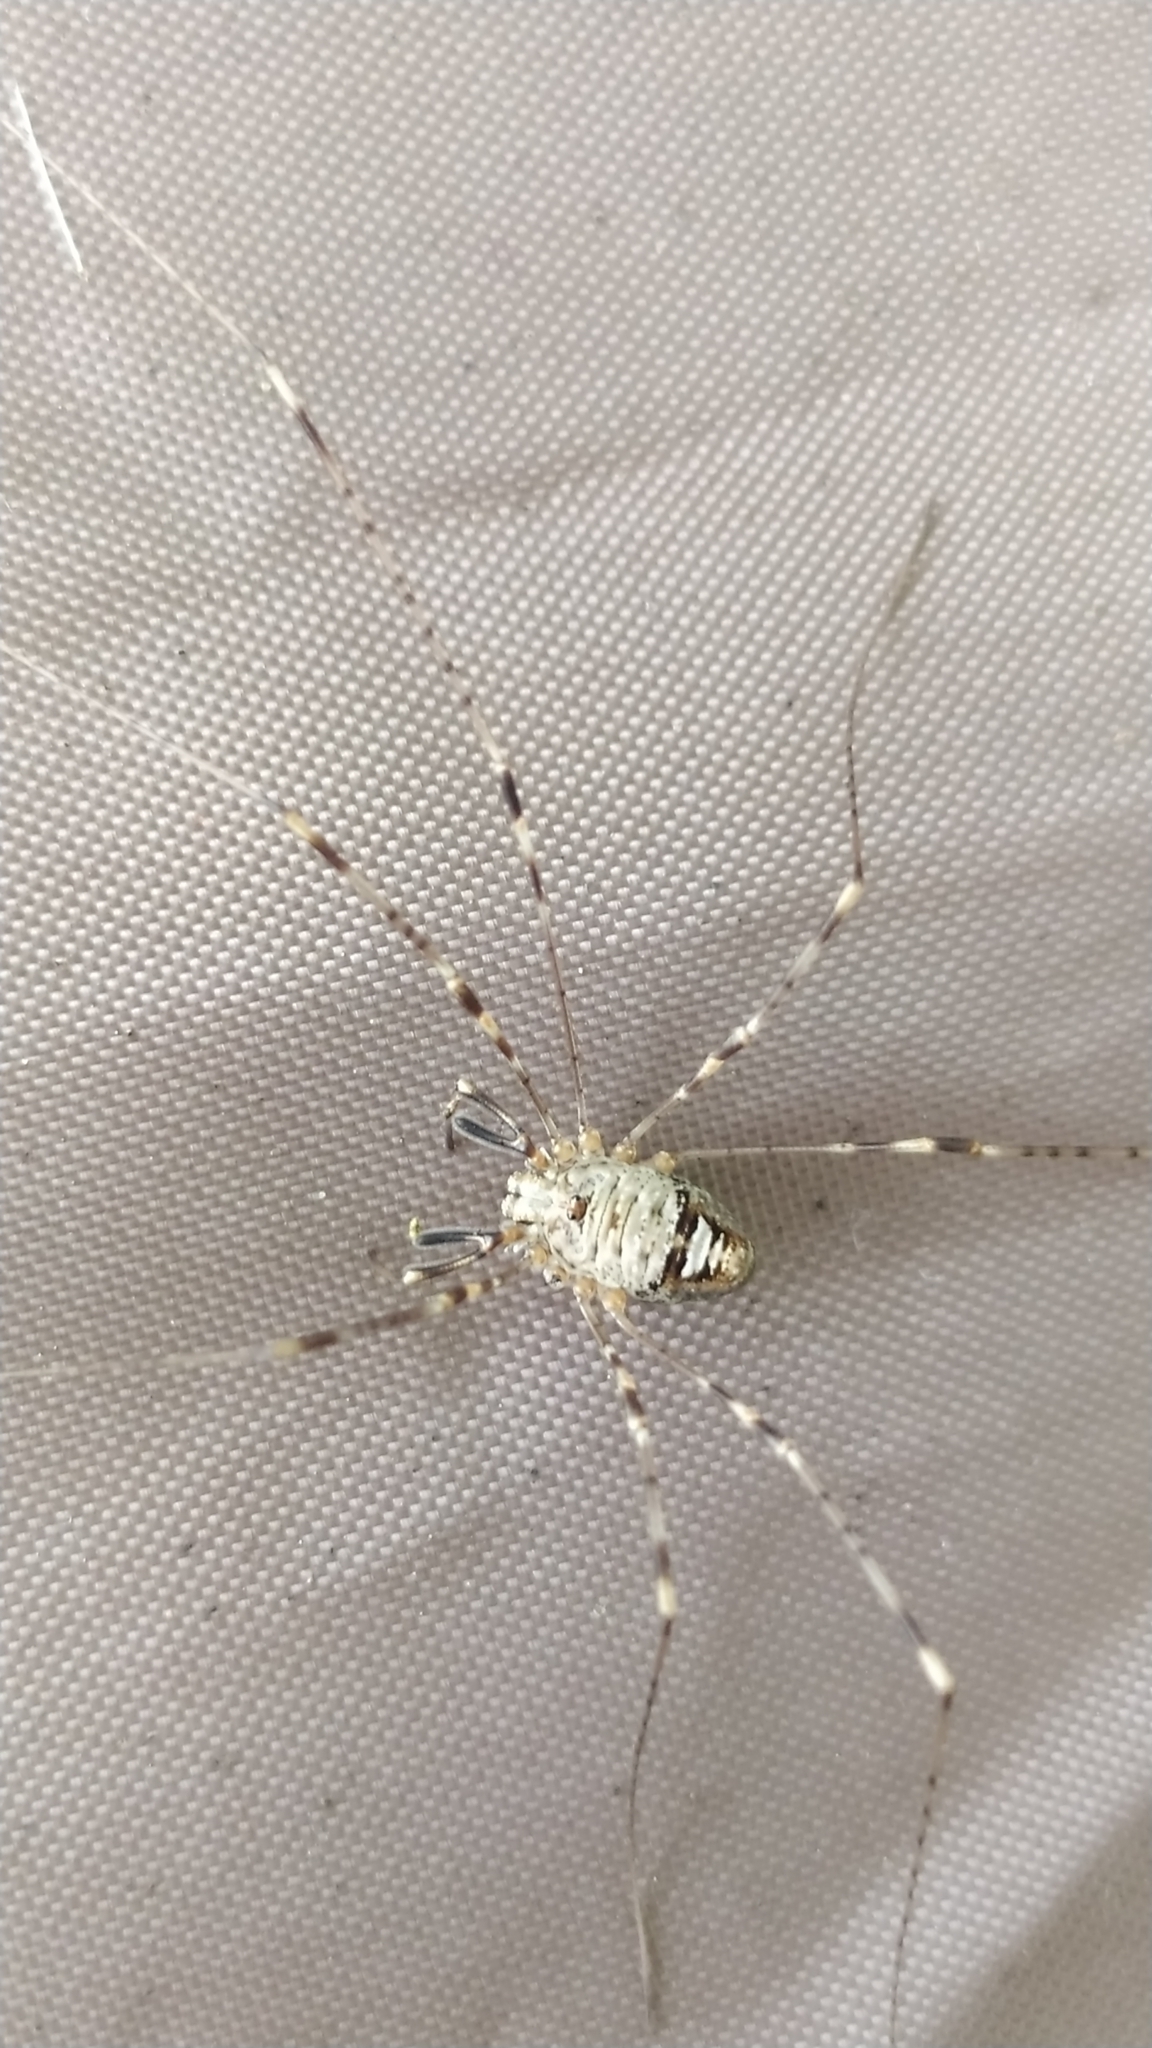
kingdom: Animalia
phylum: Arthropoda
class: Arachnida
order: Opiliones
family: Phalangiidae
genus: Dicranopalpus
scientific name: Dicranopalpus ramosus
